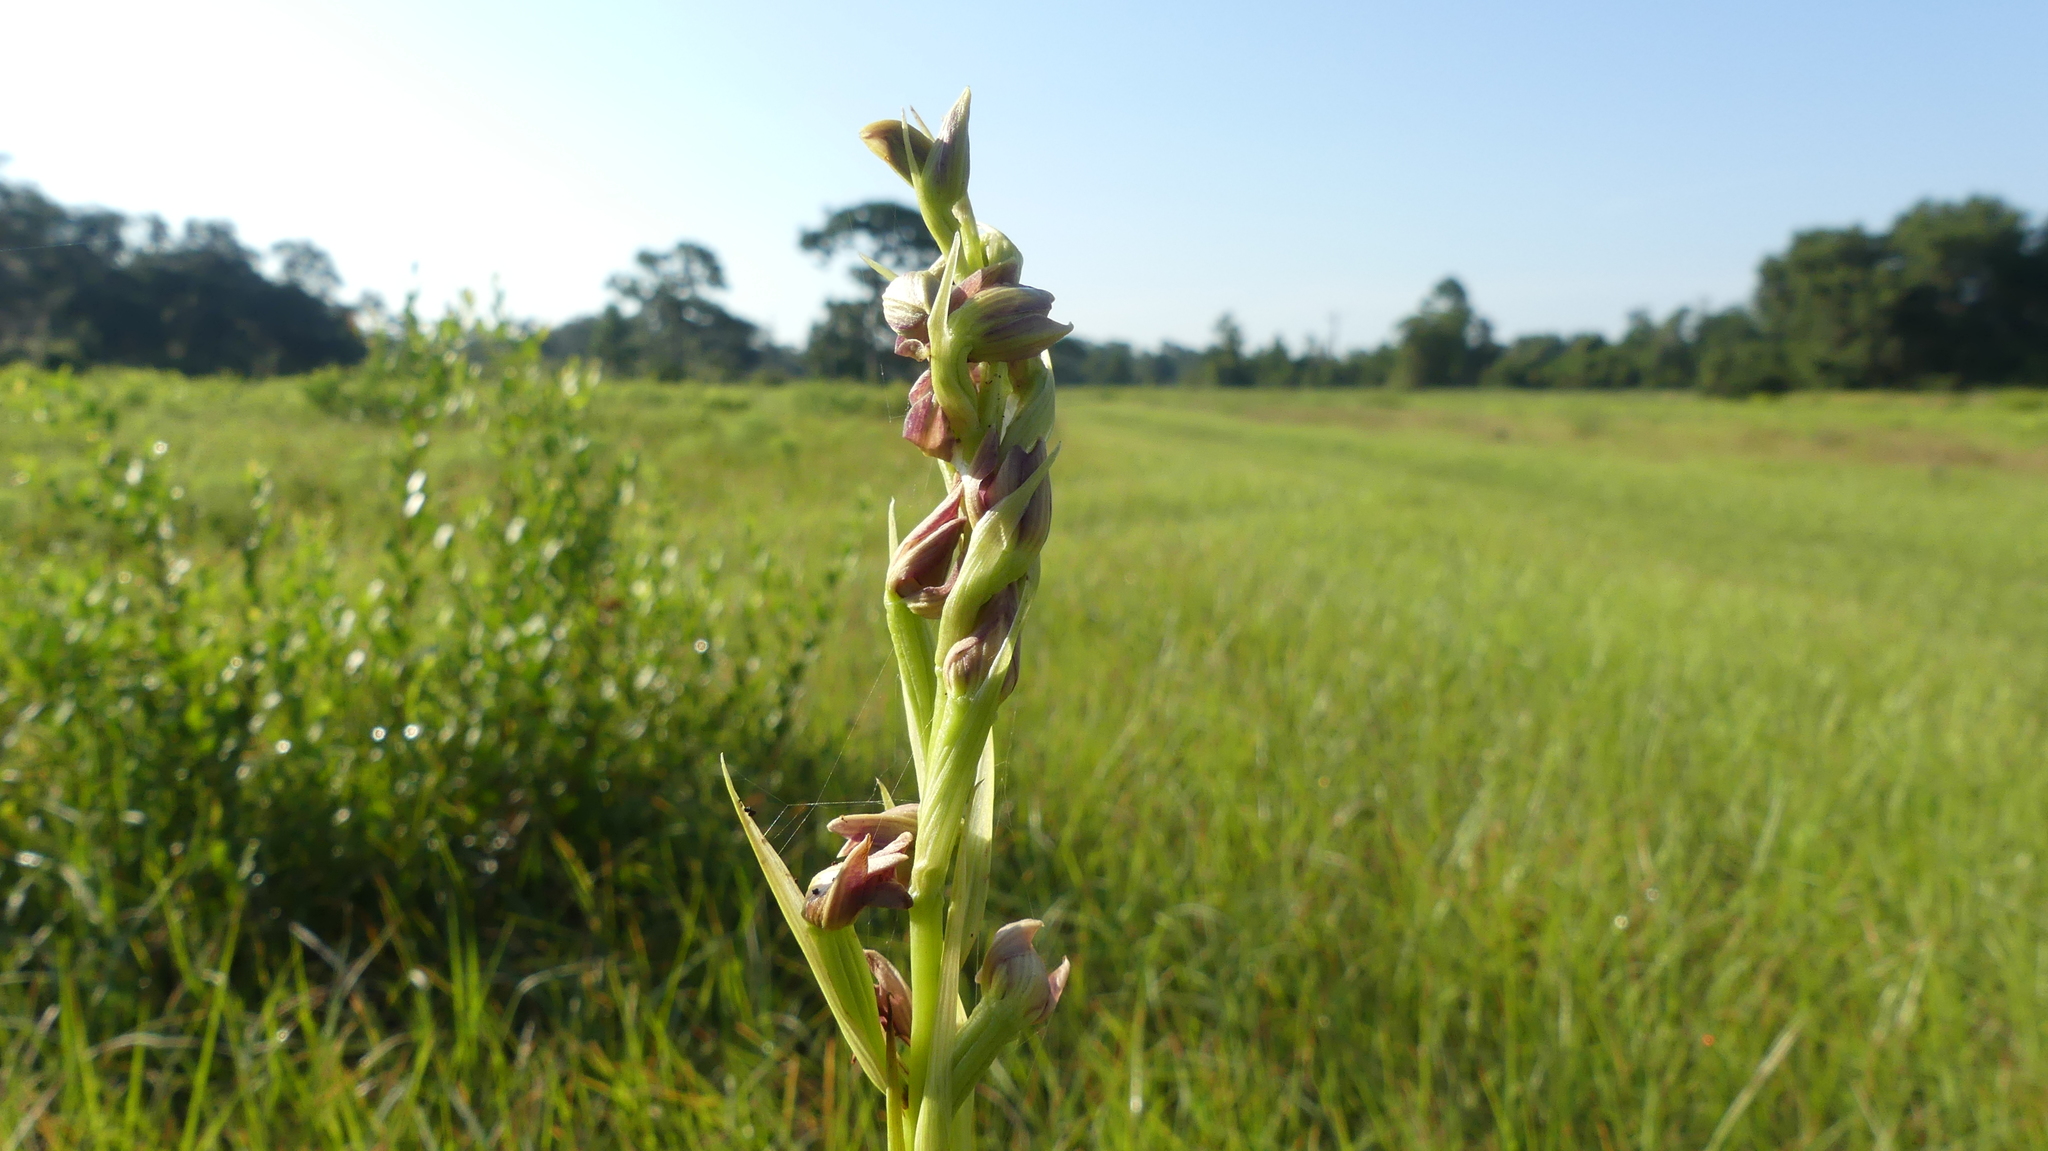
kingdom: Plantae
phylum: Tracheophyta
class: Liliopsida
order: Asparagales
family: Orchidaceae
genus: Eulophia
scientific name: Eulophia ecristata
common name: Giant orchid
